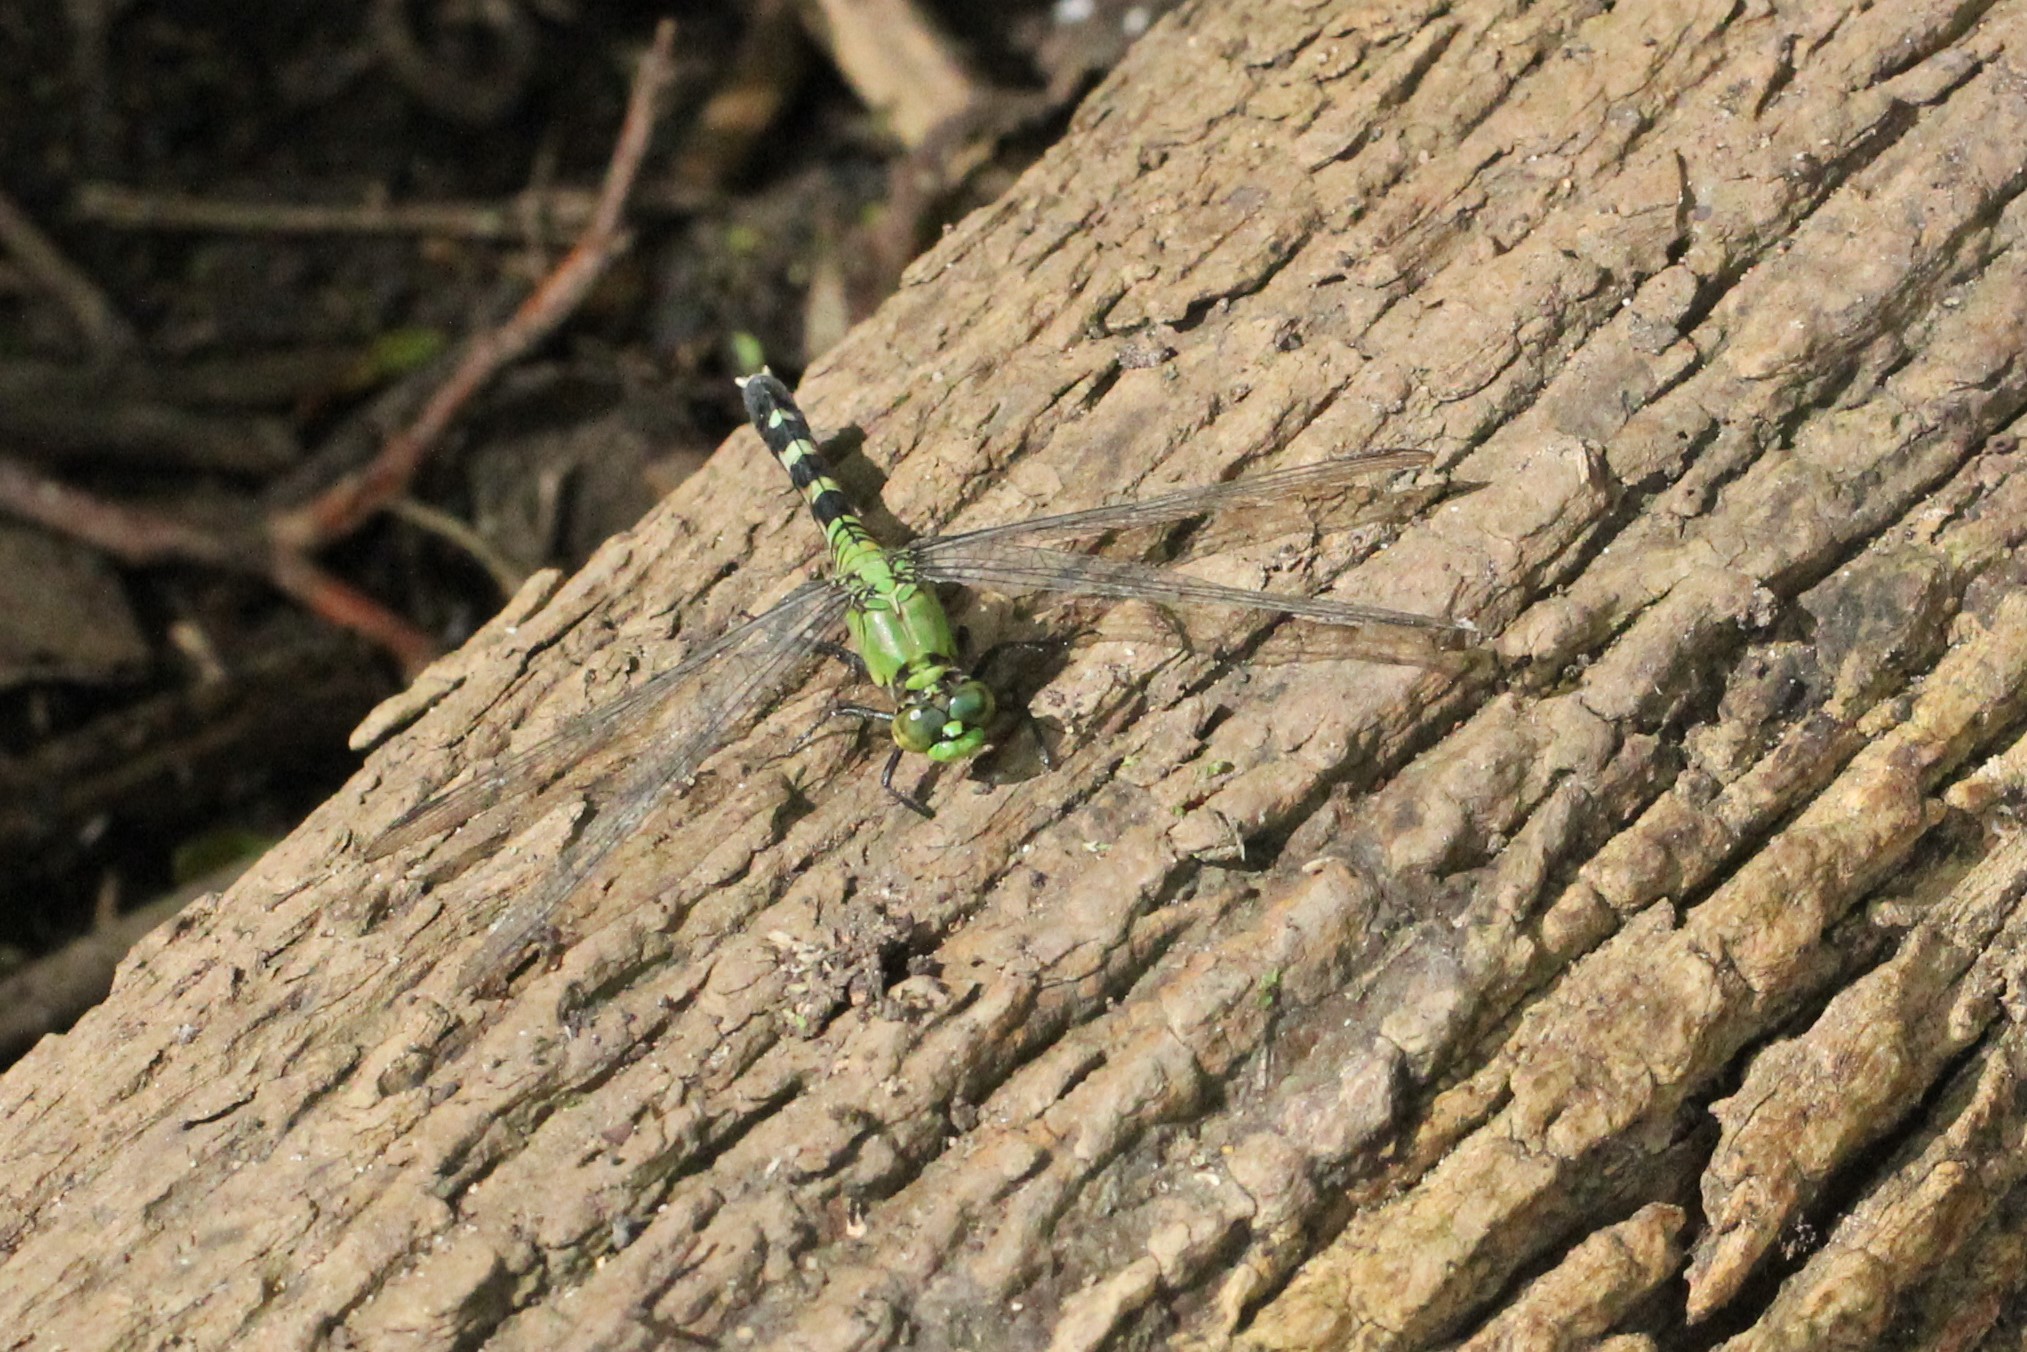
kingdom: Animalia
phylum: Arthropoda
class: Insecta
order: Odonata
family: Libellulidae
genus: Erythemis
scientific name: Erythemis simplicicollis
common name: Eastern pondhawk
